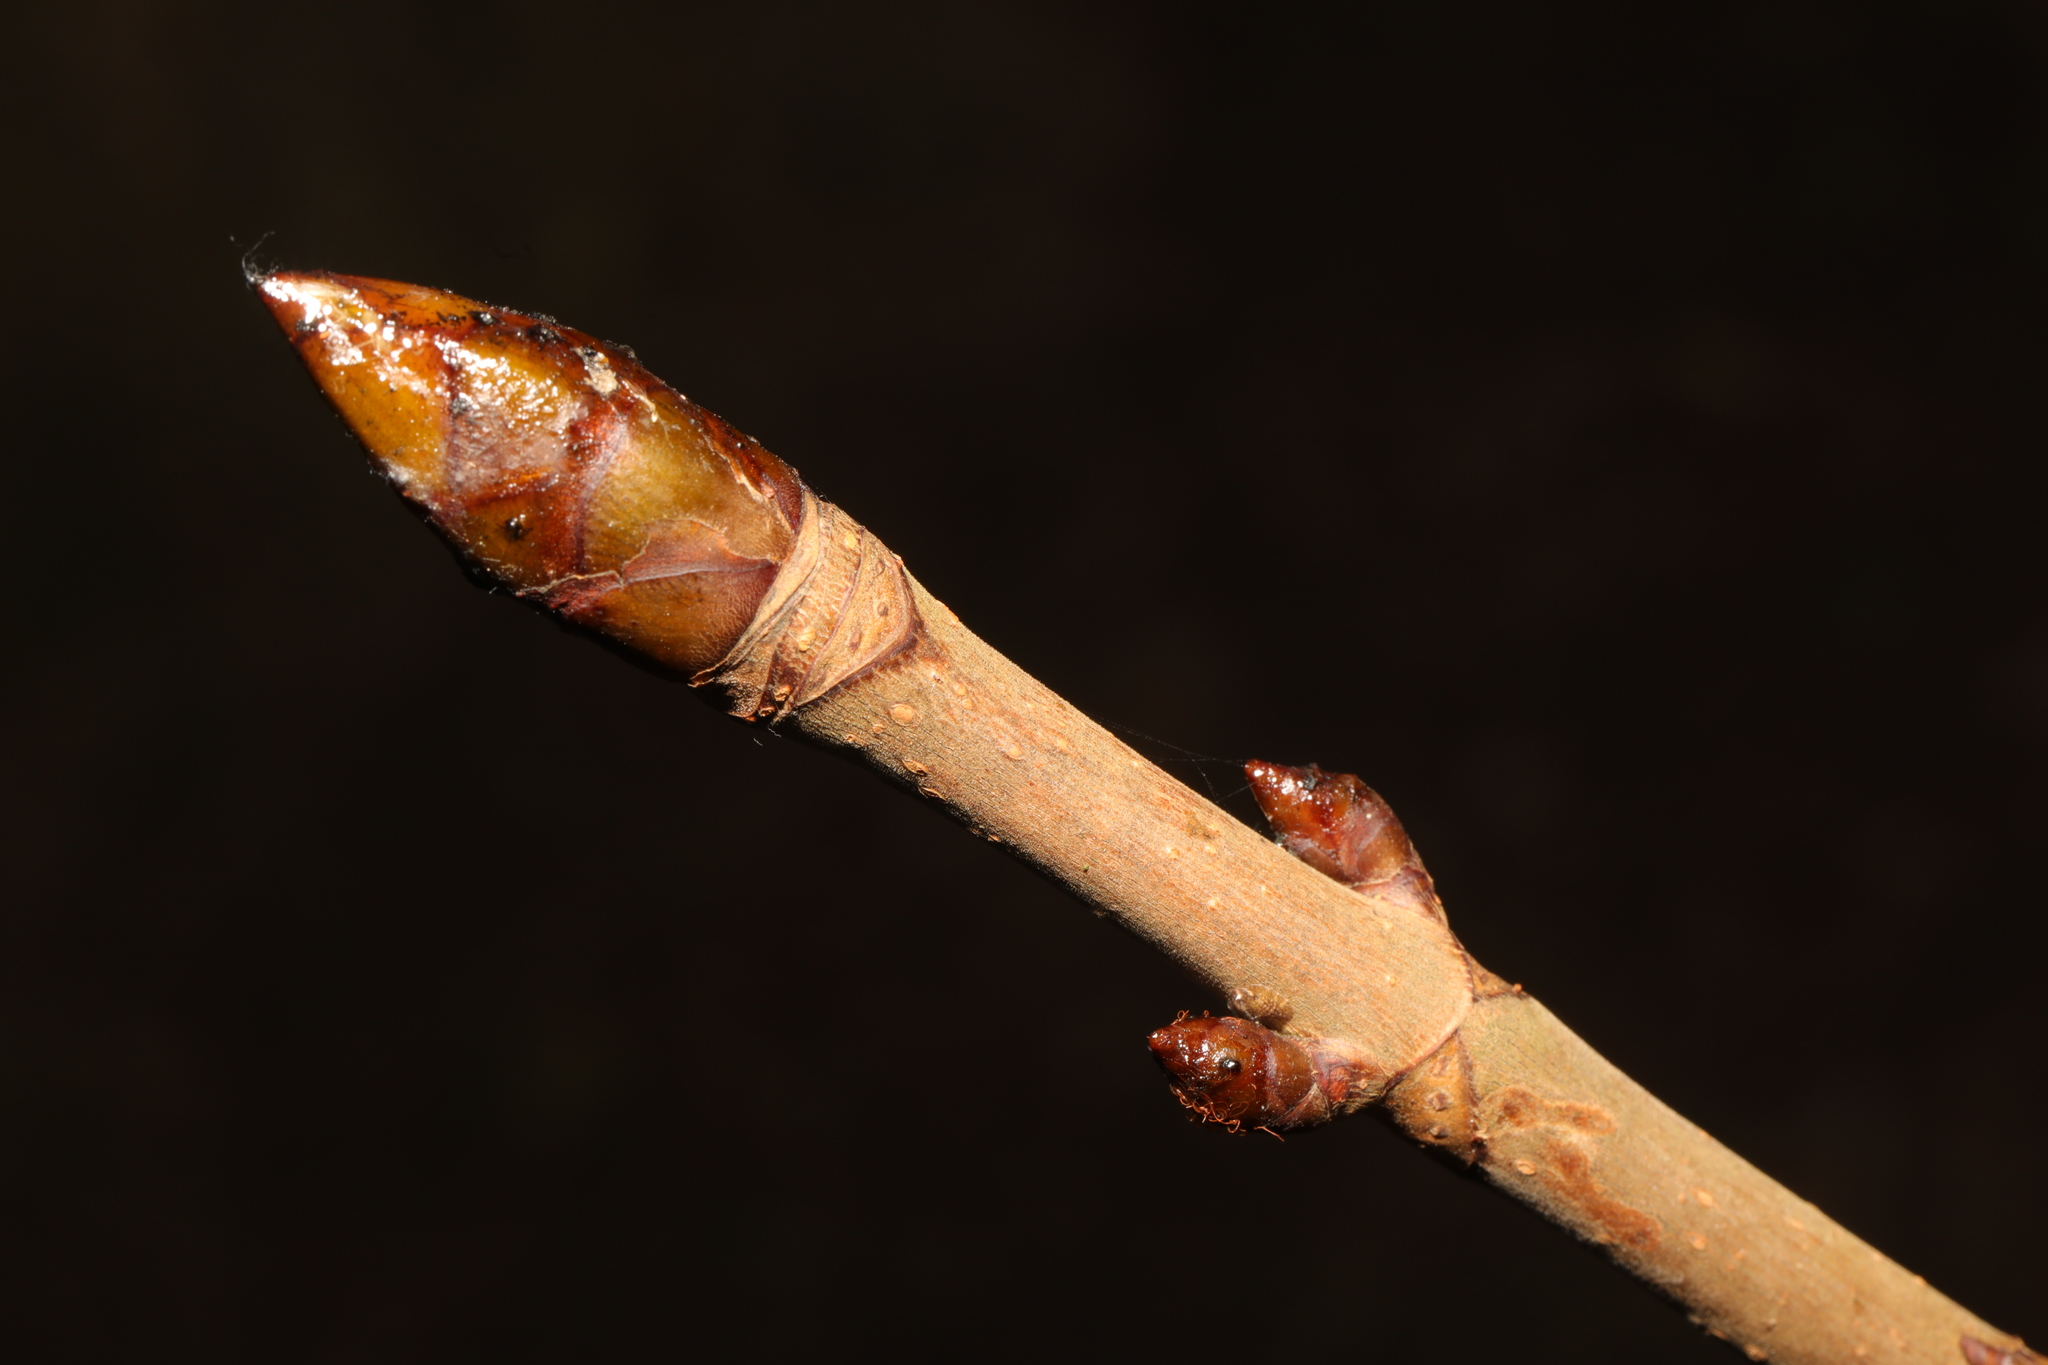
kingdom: Plantae
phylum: Tracheophyta
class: Magnoliopsida
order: Sapindales
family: Sapindaceae
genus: Aesculus
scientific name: Aesculus hippocastanum
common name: Horse-chestnut
